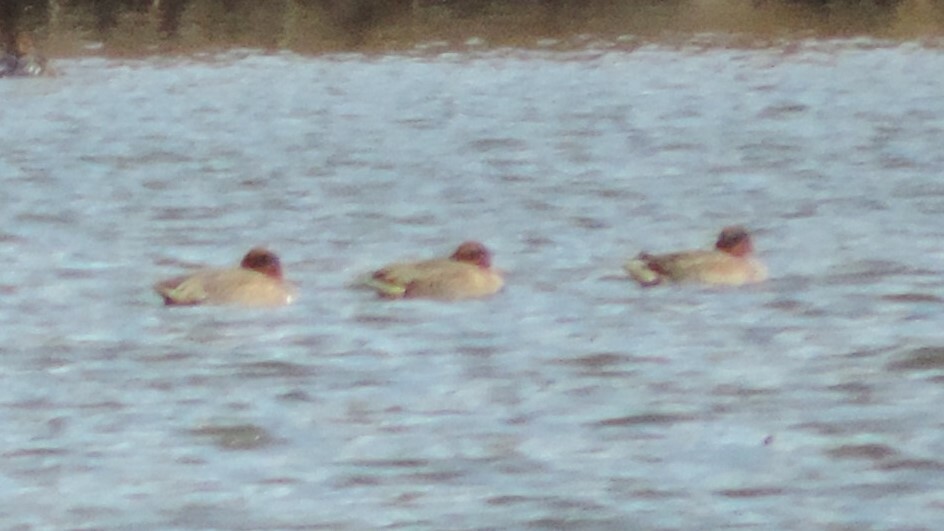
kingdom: Animalia
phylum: Chordata
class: Aves
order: Anseriformes
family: Anatidae
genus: Anas
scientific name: Anas carolinensis
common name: Green-winged teal
